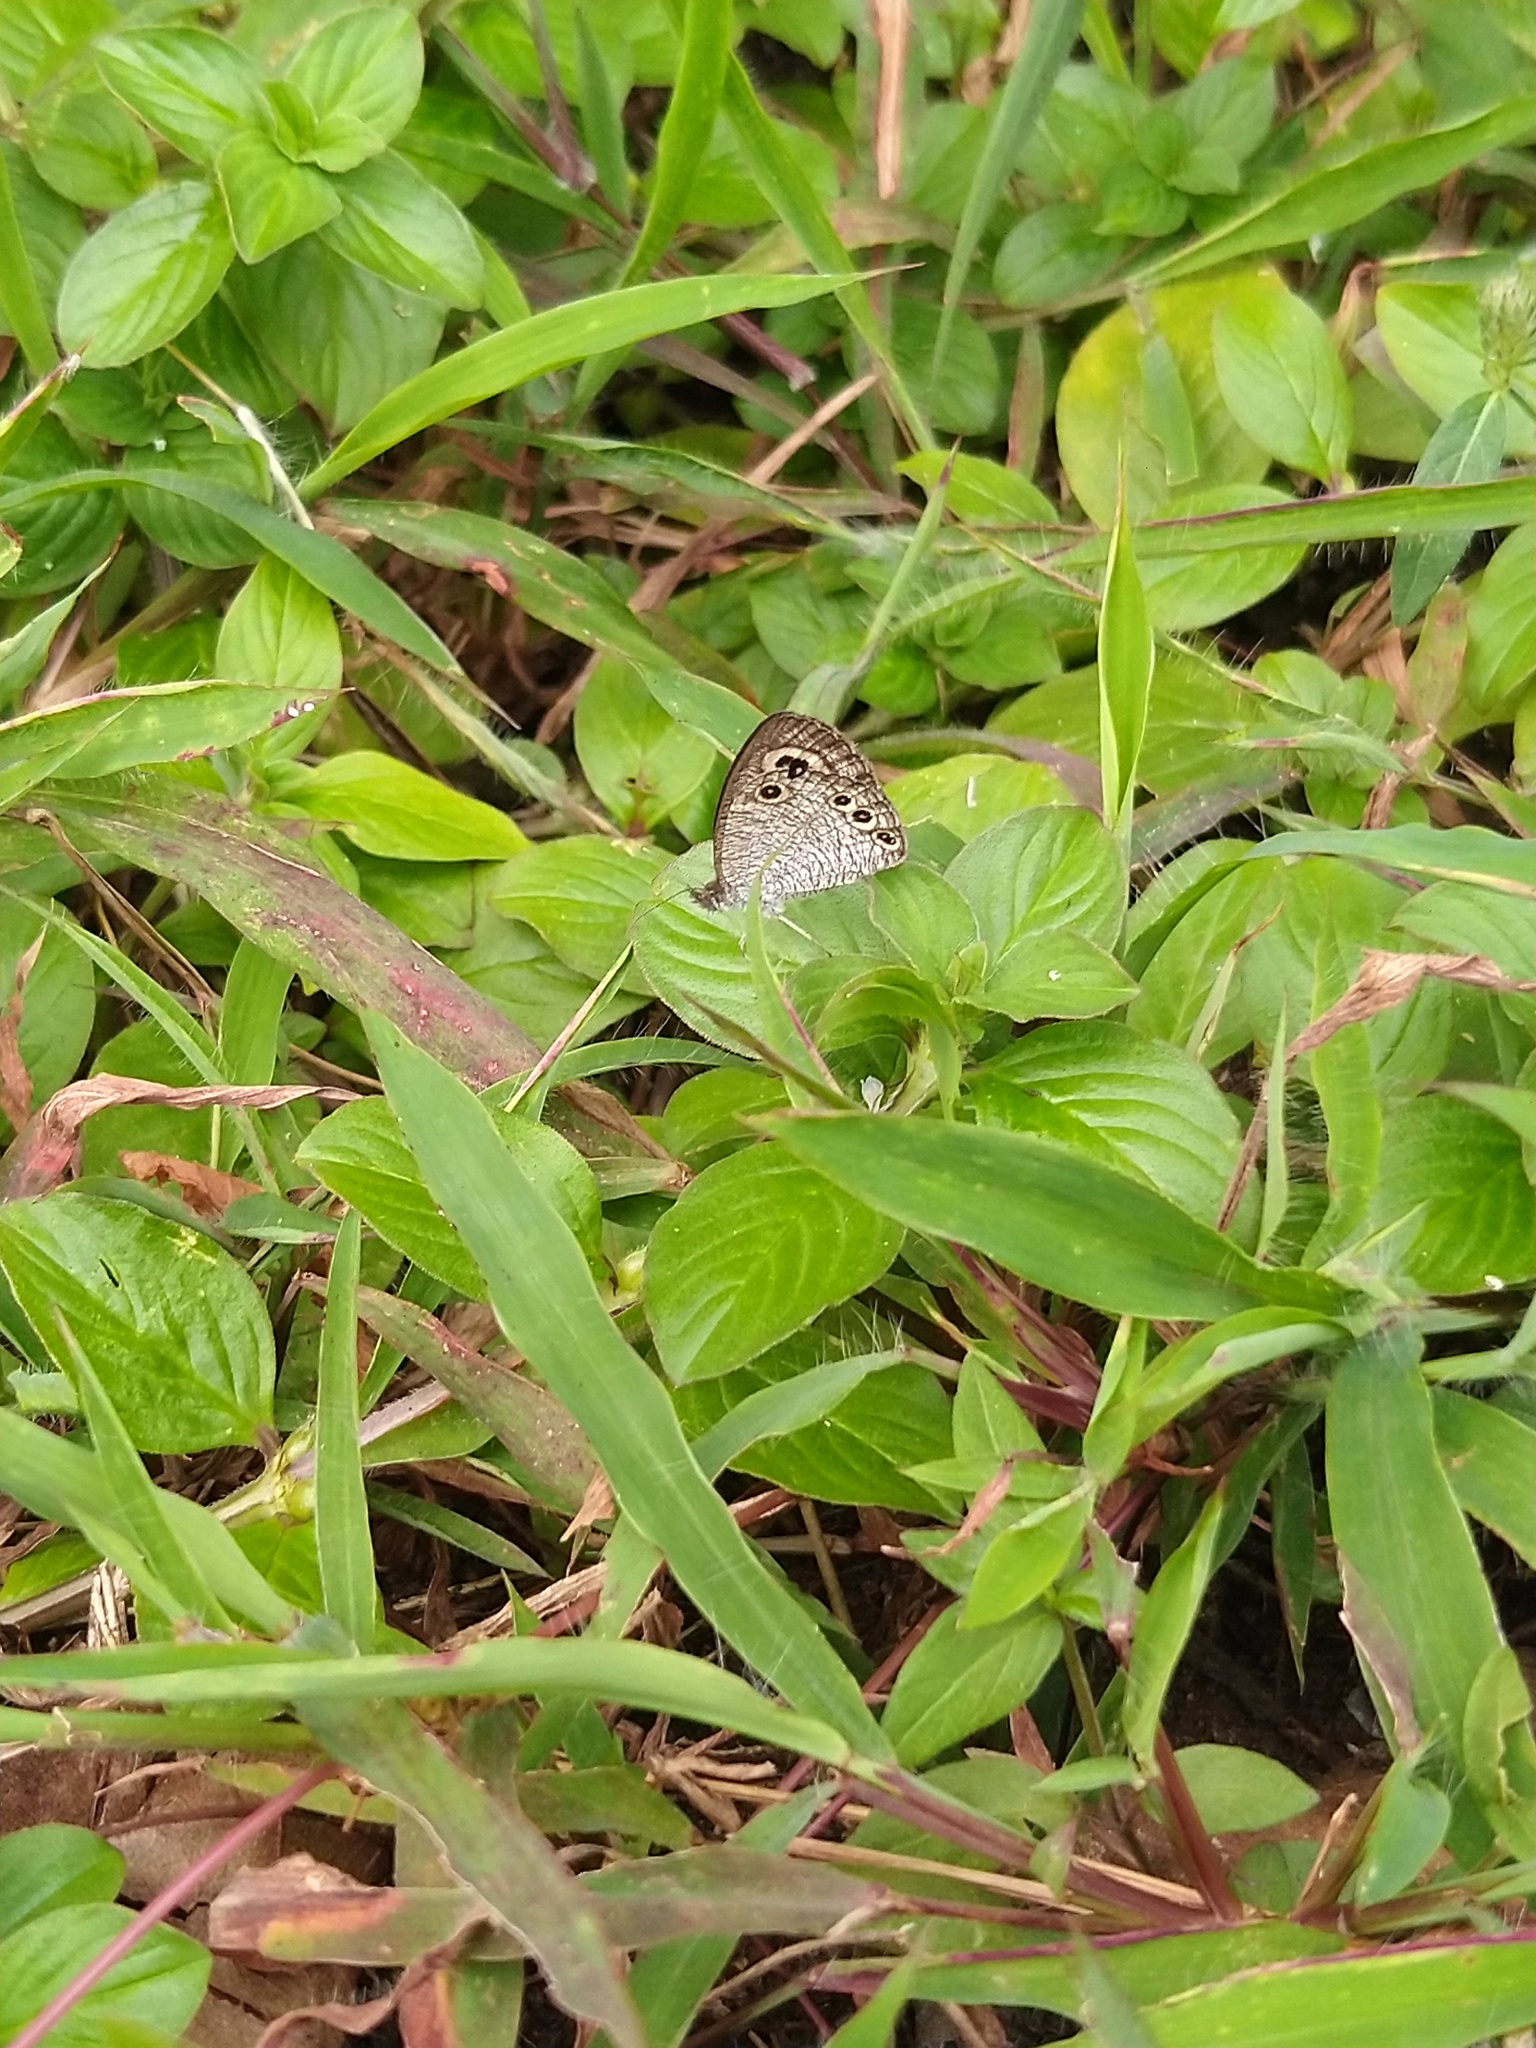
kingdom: Animalia
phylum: Arthropoda
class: Insecta
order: Lepidoptera
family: Nymphalidae
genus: Ypthima
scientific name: Ypthima huebneri
